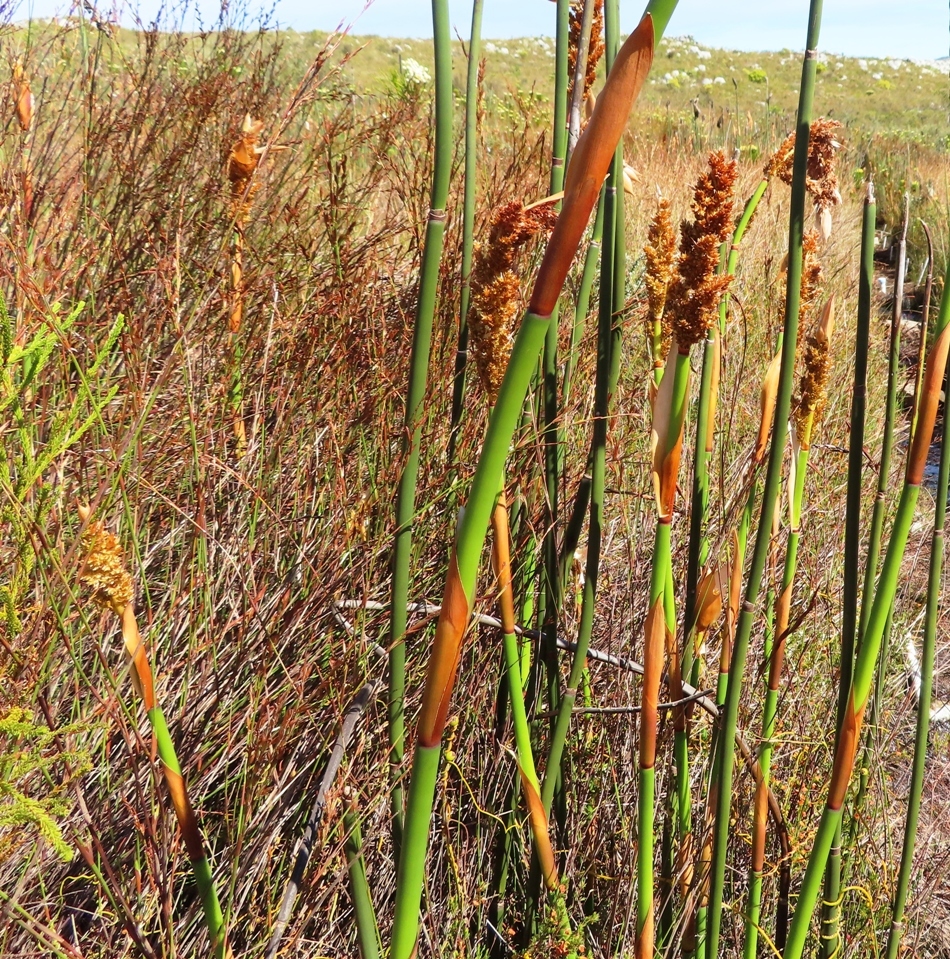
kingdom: Plantae
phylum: Tracheophyta
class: Liliopsida
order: Poales
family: Restionaceae
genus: Elegia
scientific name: Elegia mucronata
